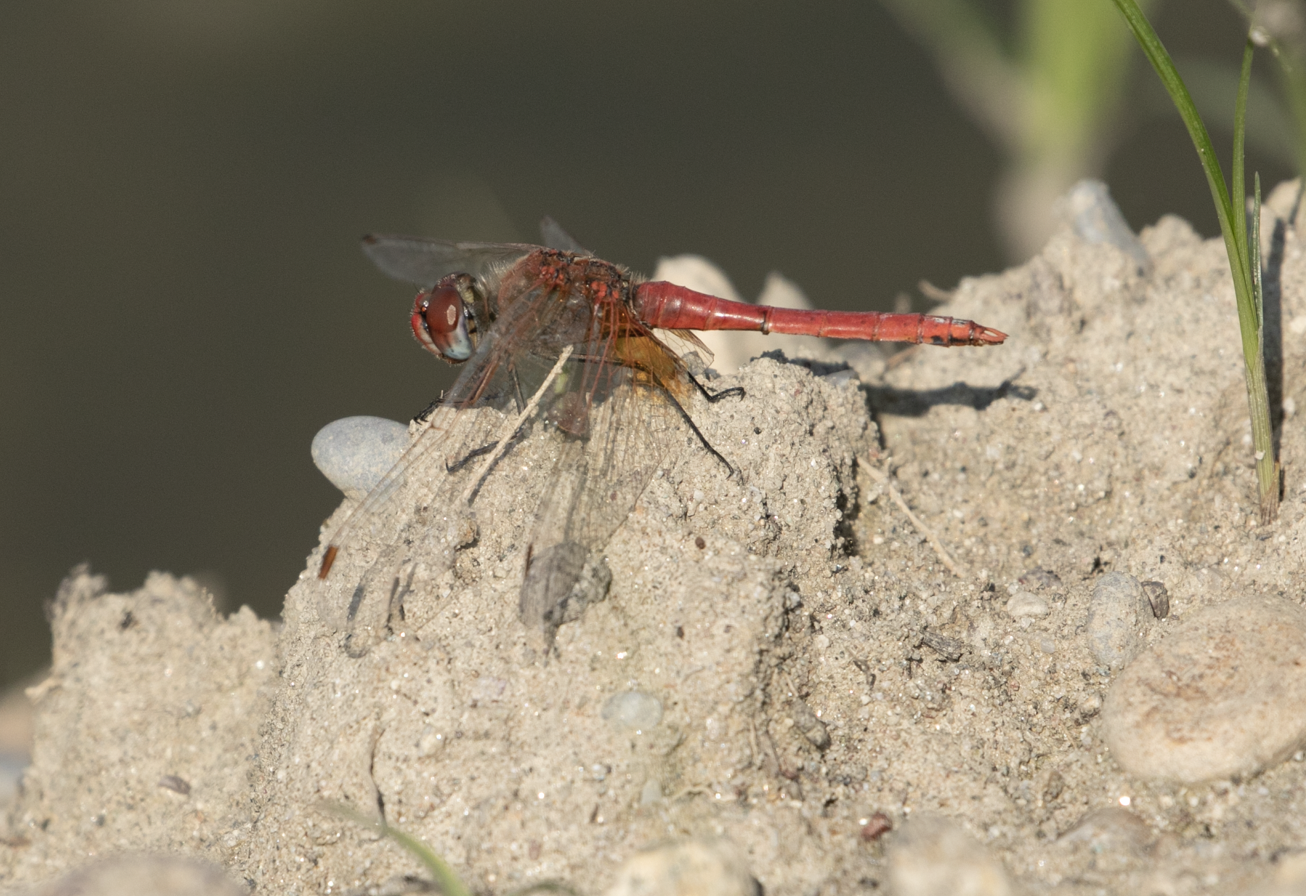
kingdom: Animalia
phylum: Arthropoda
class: Insecta
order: Odonata
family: Libellulidae
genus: Sympetrum
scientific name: Sympetrum fonscolombii
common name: Red-veined darter
